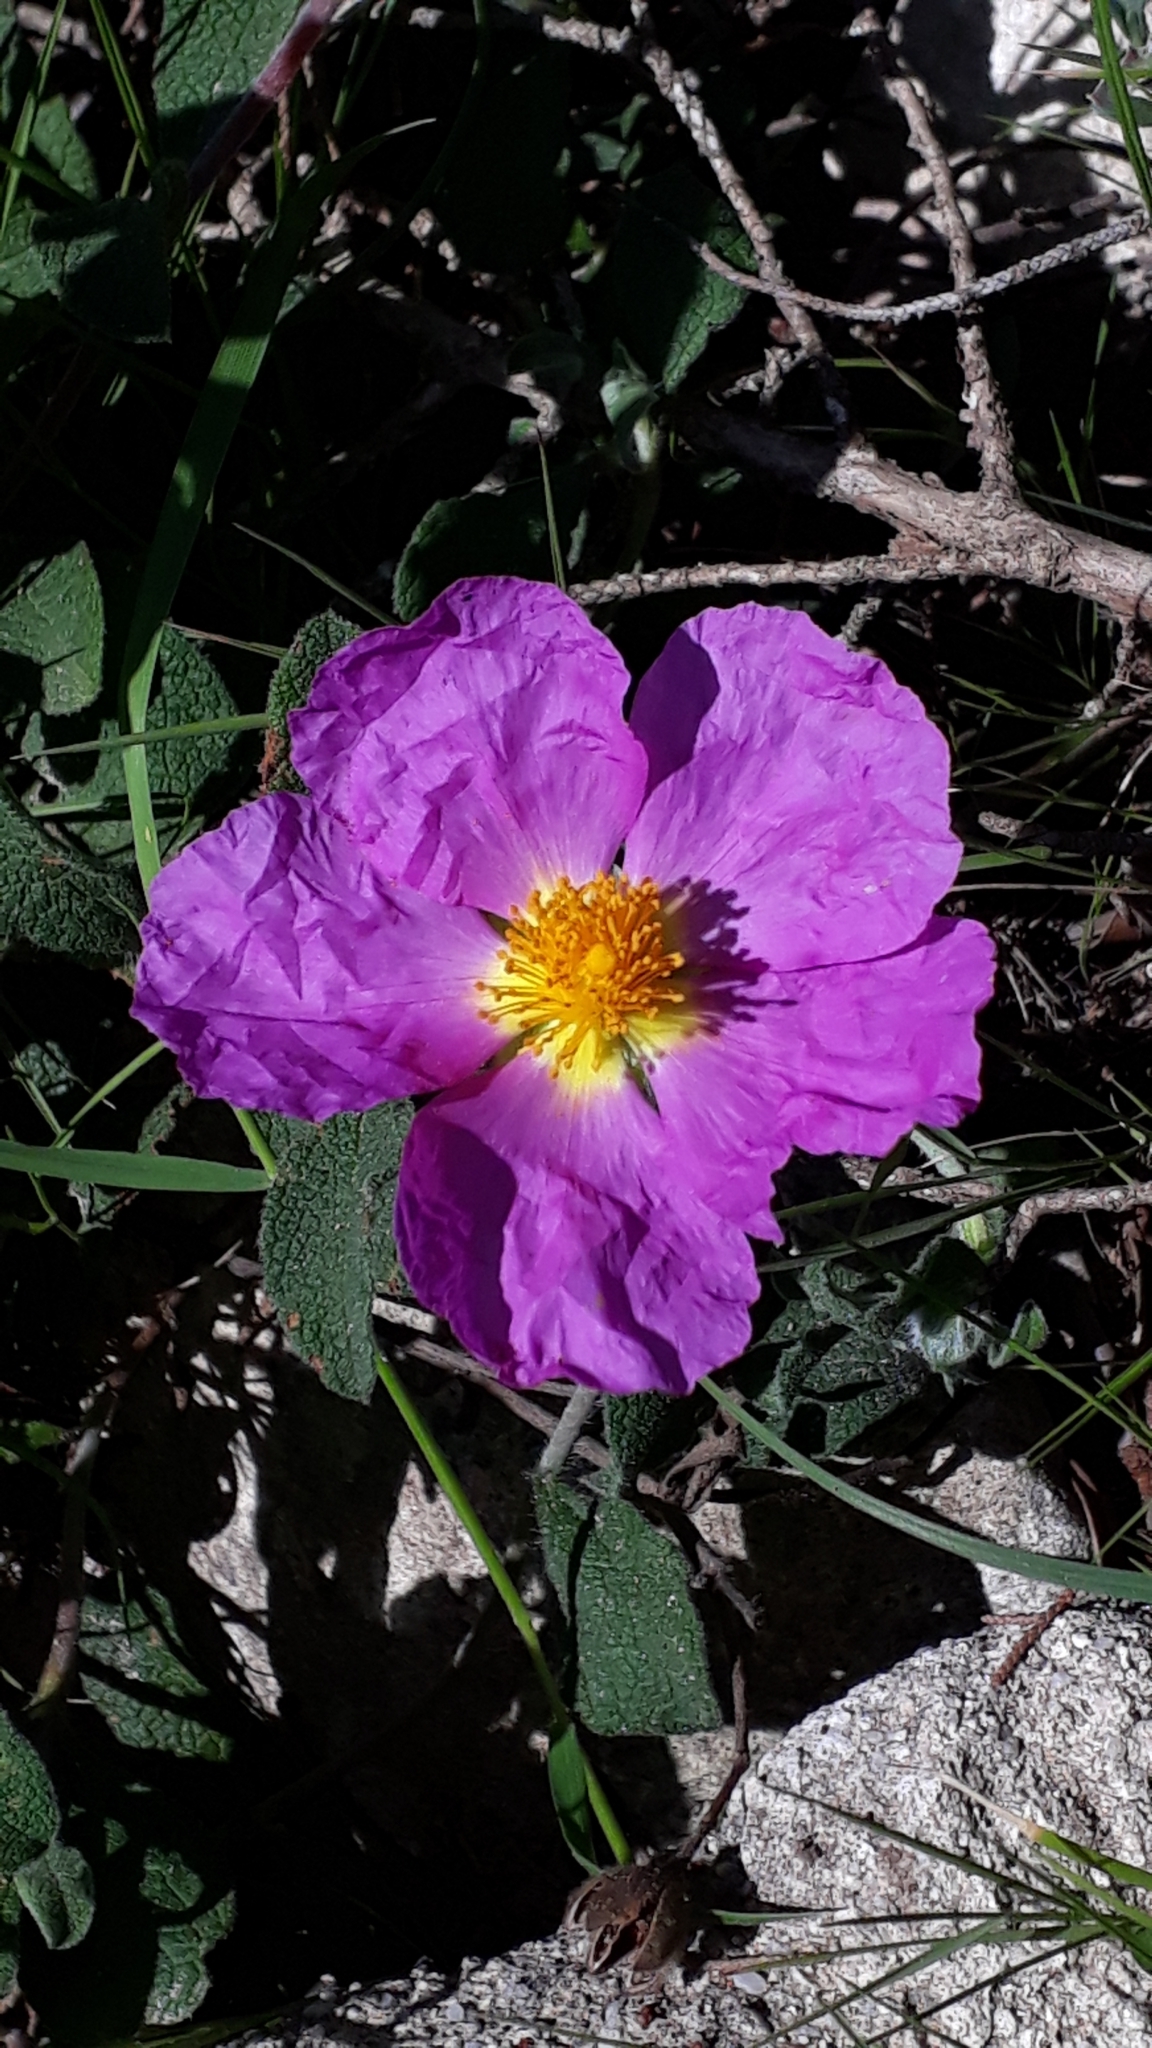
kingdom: Plantae
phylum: Tracheophyta
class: Magnoliopsida
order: Malvales
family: Cistaceae
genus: Cistus
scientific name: Cistus creticus
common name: Cretan rockrose
